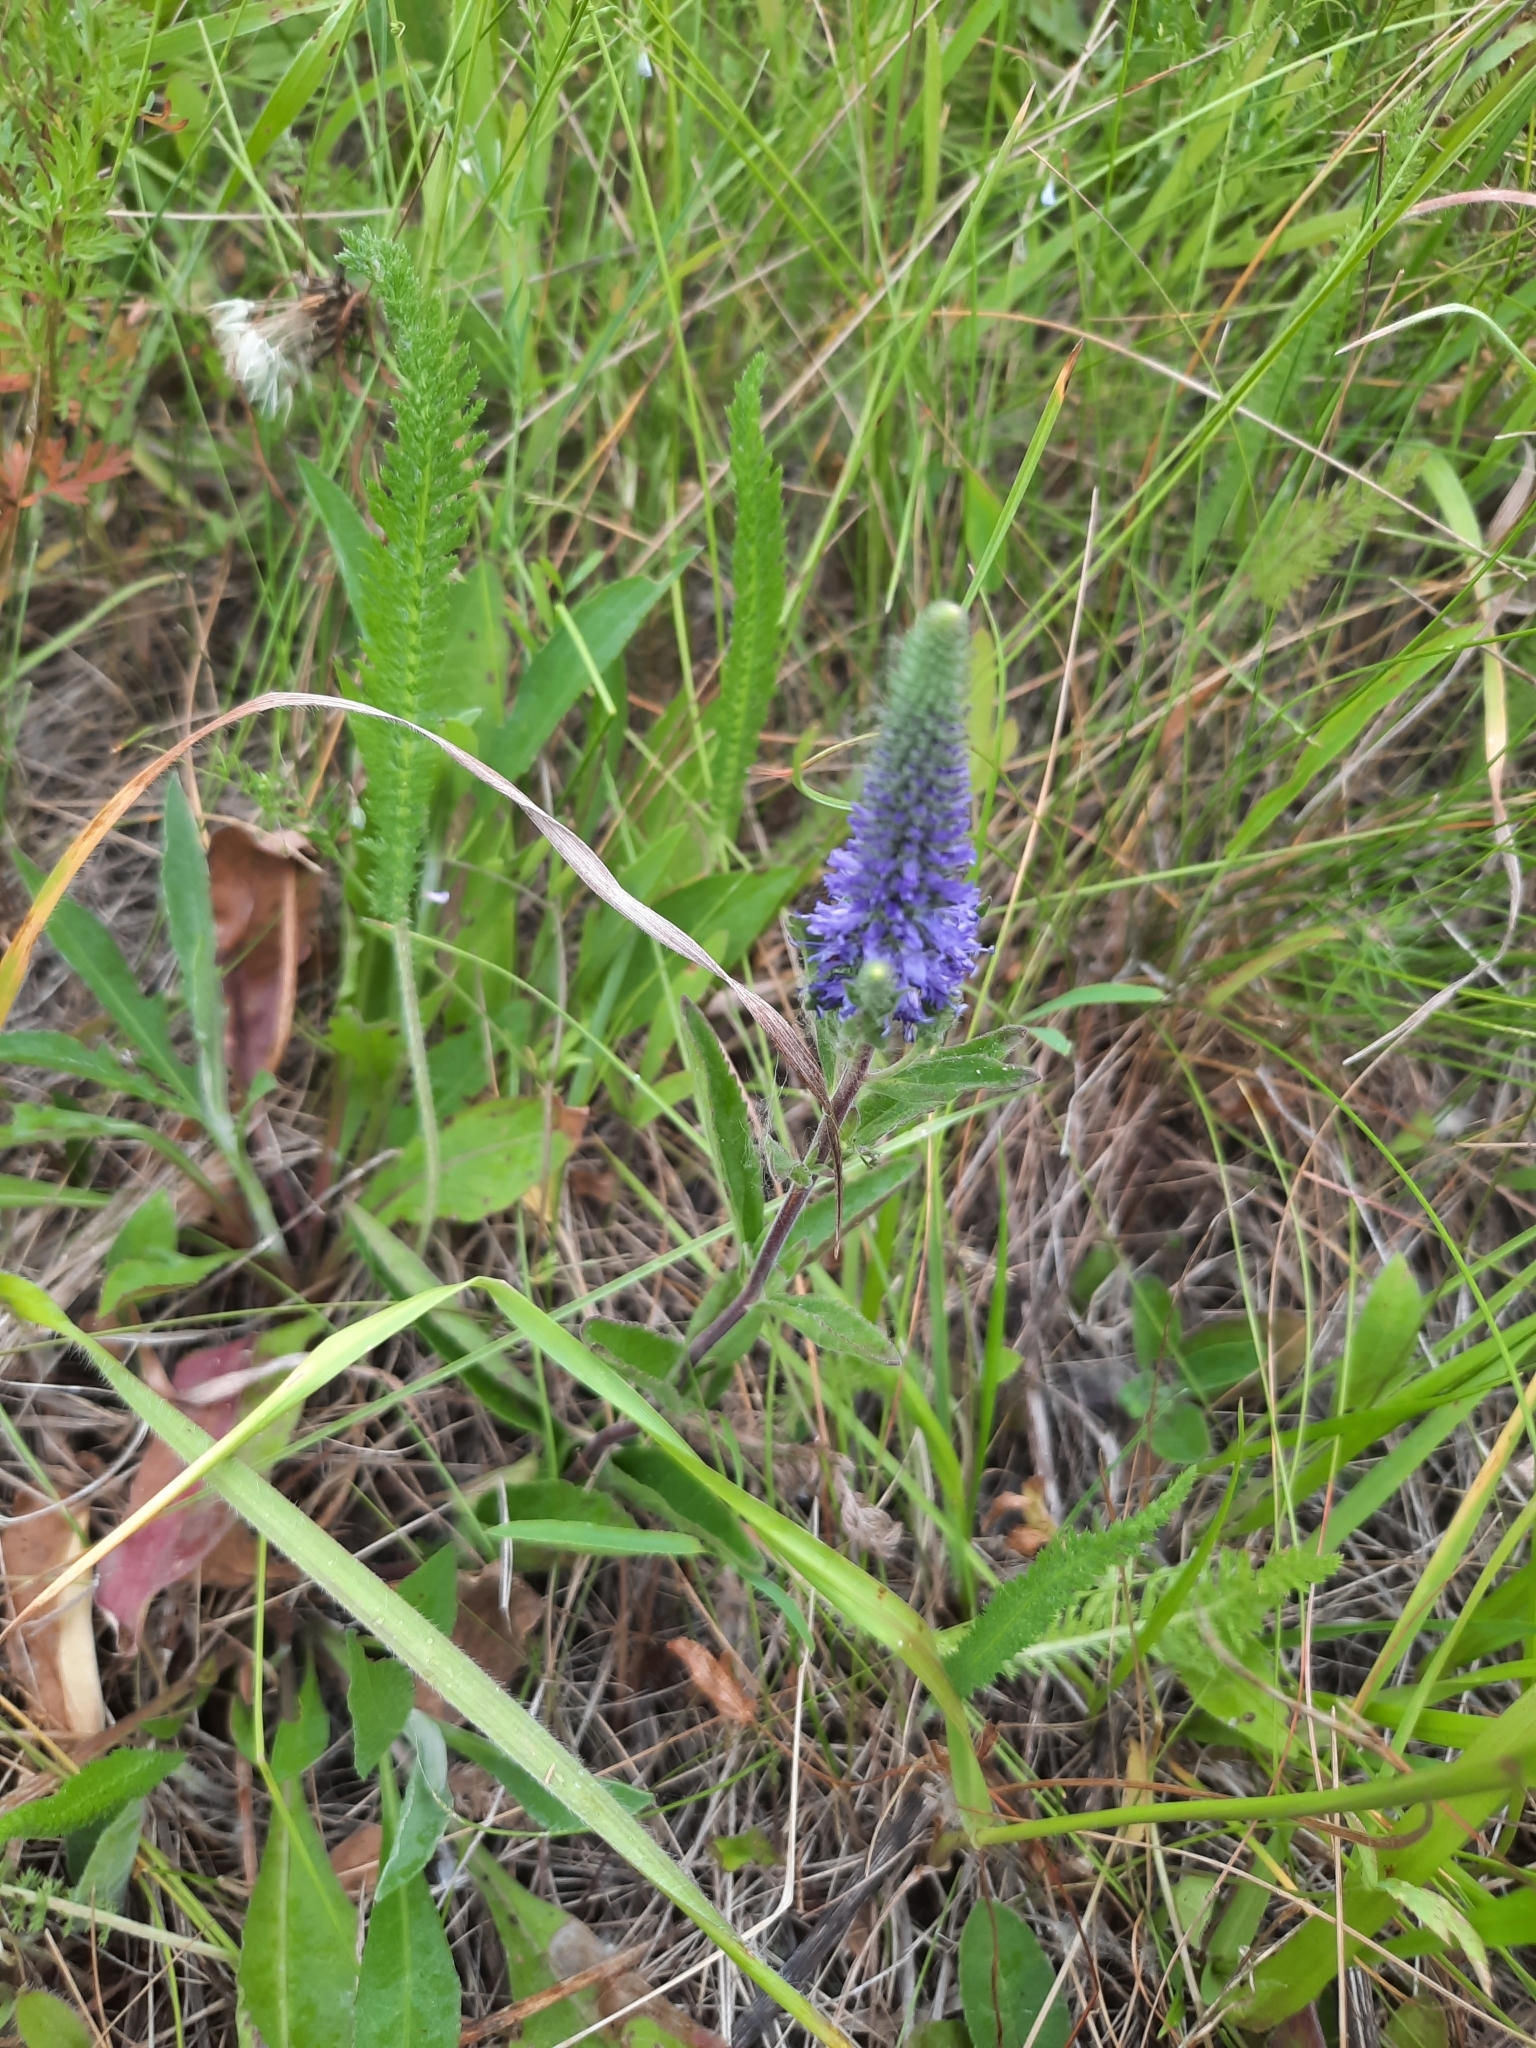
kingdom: Plantae
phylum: Tracheophyta
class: Magnoliopsida
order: Lamiales
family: Plantaginaceae
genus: Veronica
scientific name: Veronica spicata
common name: Spiked speedwell
